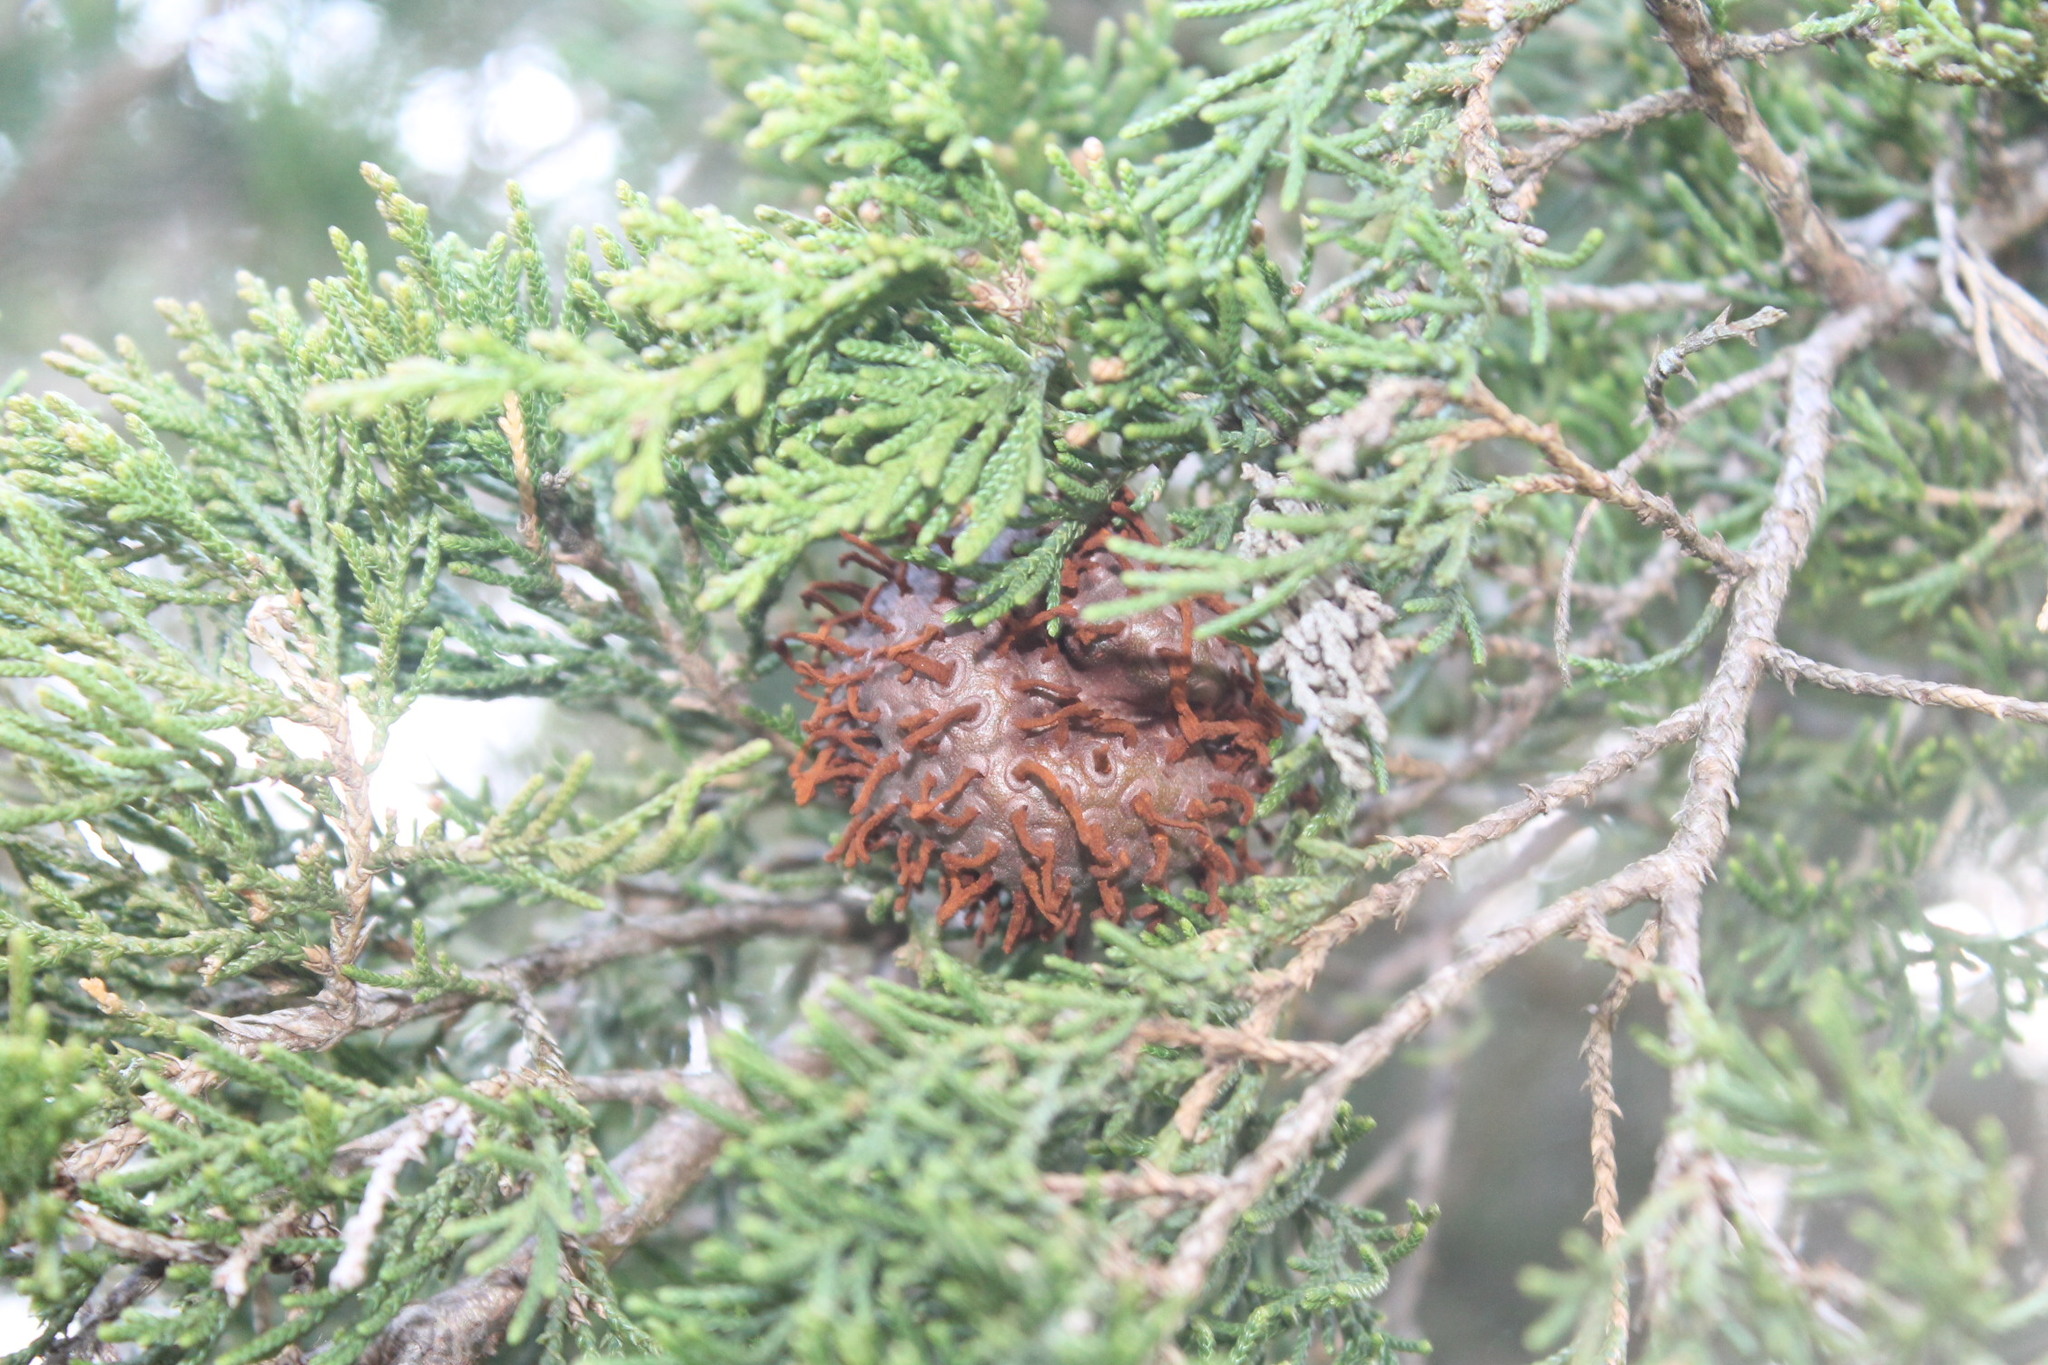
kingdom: Fungi
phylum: Basidiomycota
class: Pucciniomycetes
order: Pucciniales
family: Gymnosporangiaceae
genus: Gymnosporangium
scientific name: Gymnosporangium juniperi-virginianae
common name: Juniper-apple rust
